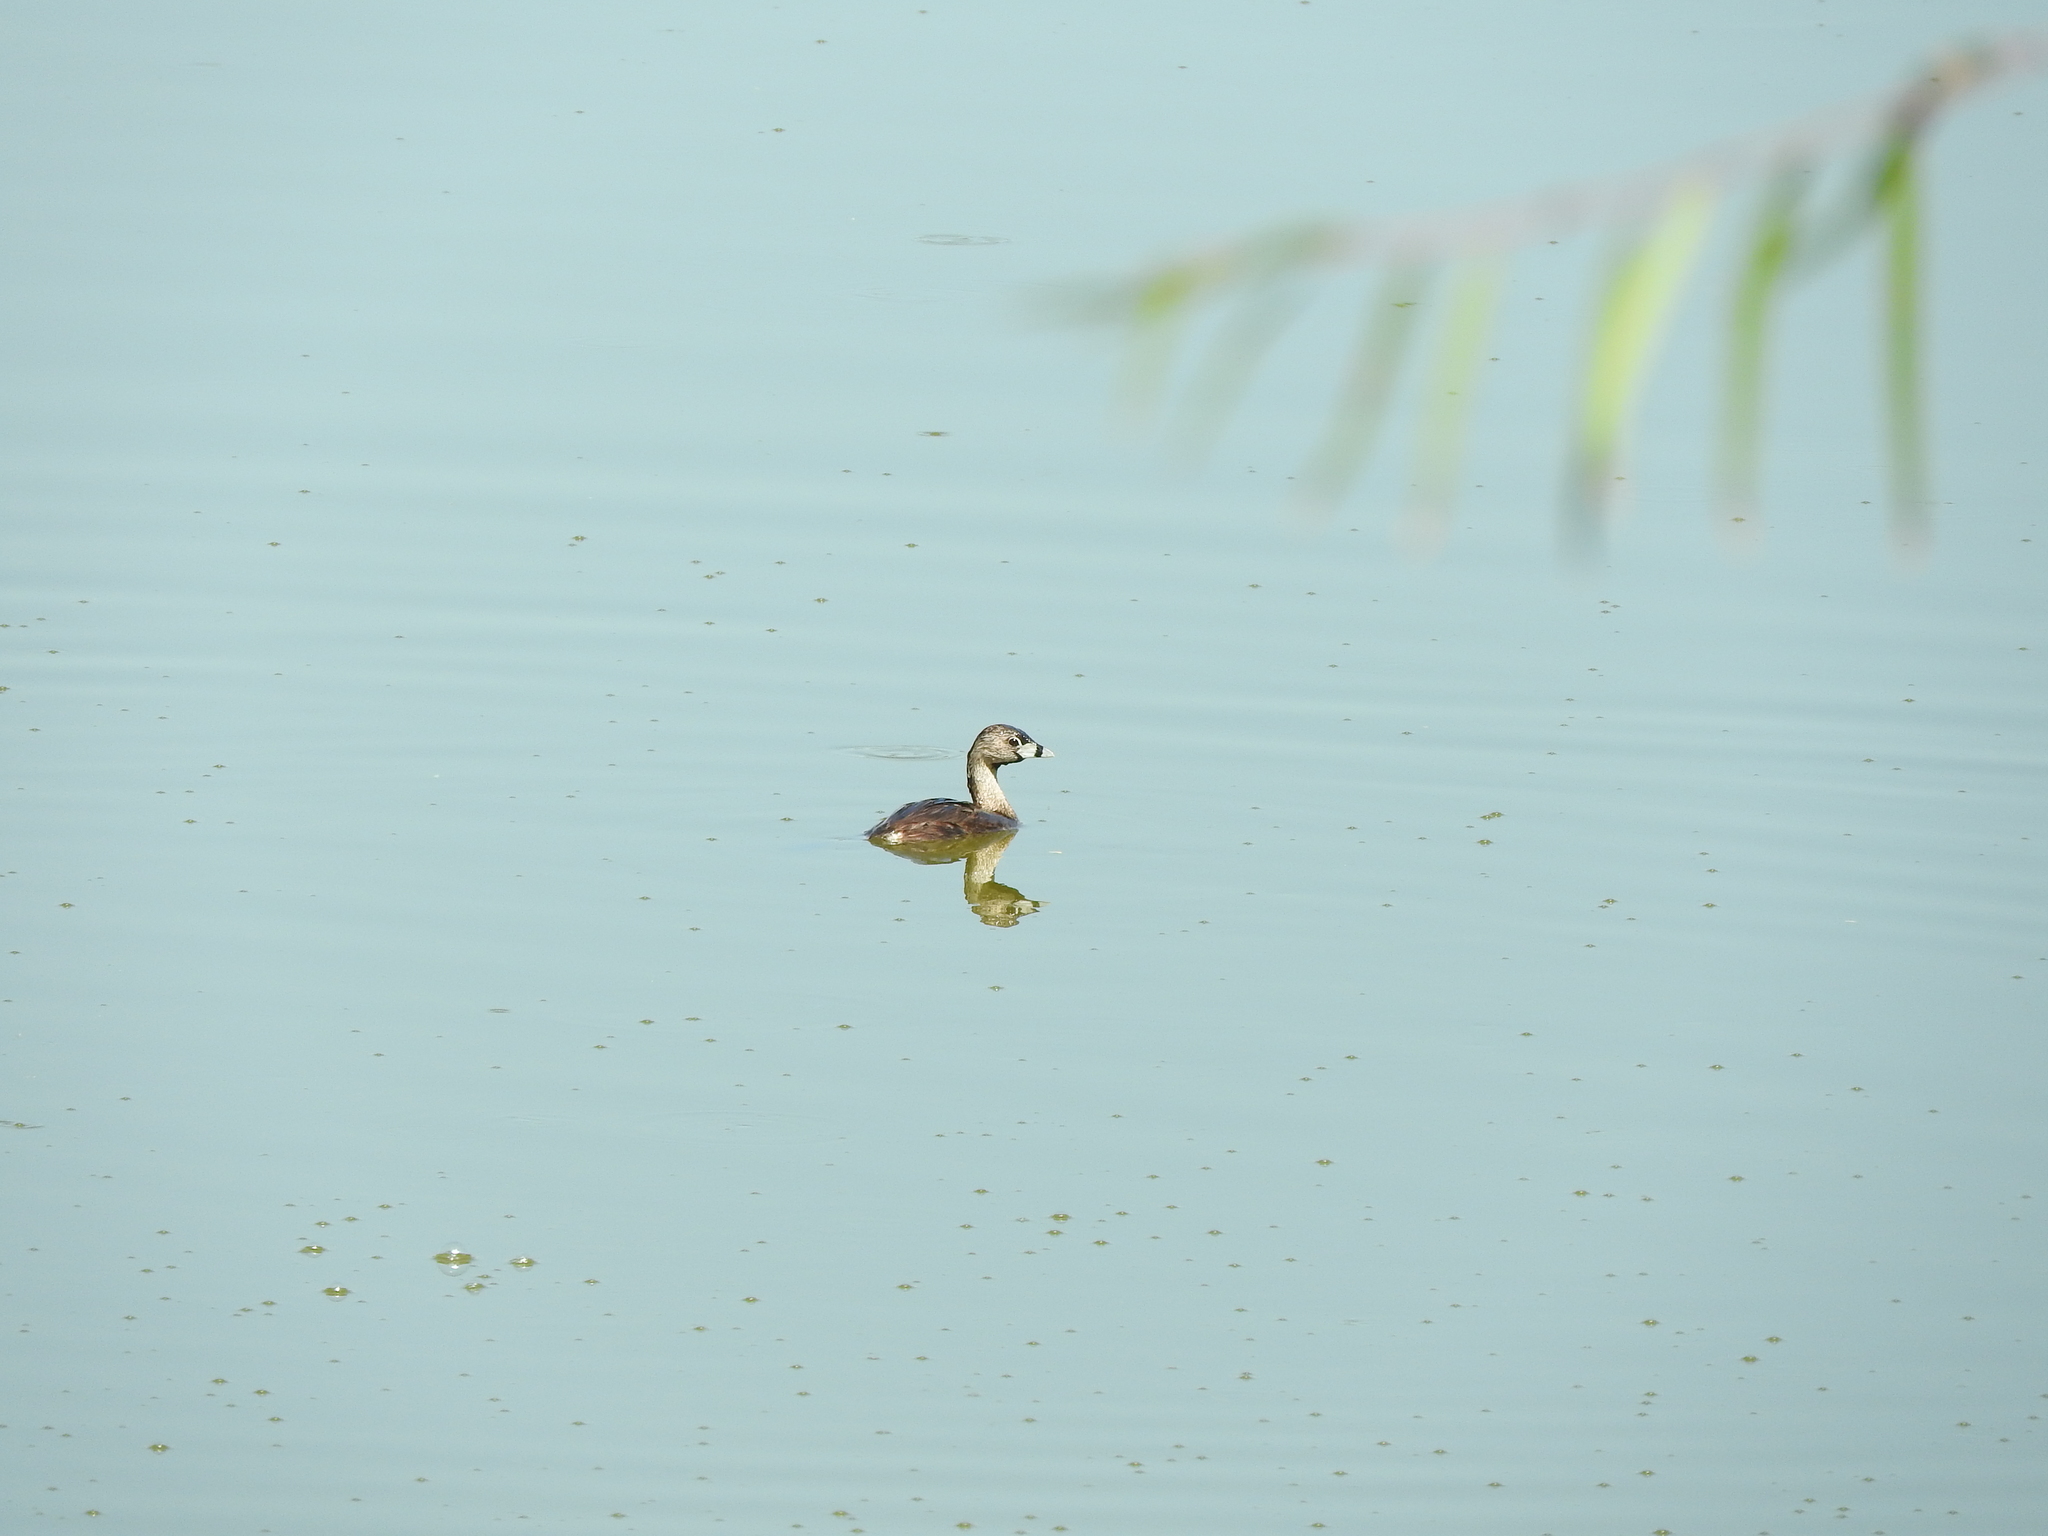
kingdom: Animalia
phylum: Chordata
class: Aves
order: Podicipediformes
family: Podicipedidae
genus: Podilymbus
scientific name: Podilymbus podiceps
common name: Pied-billed grebe
